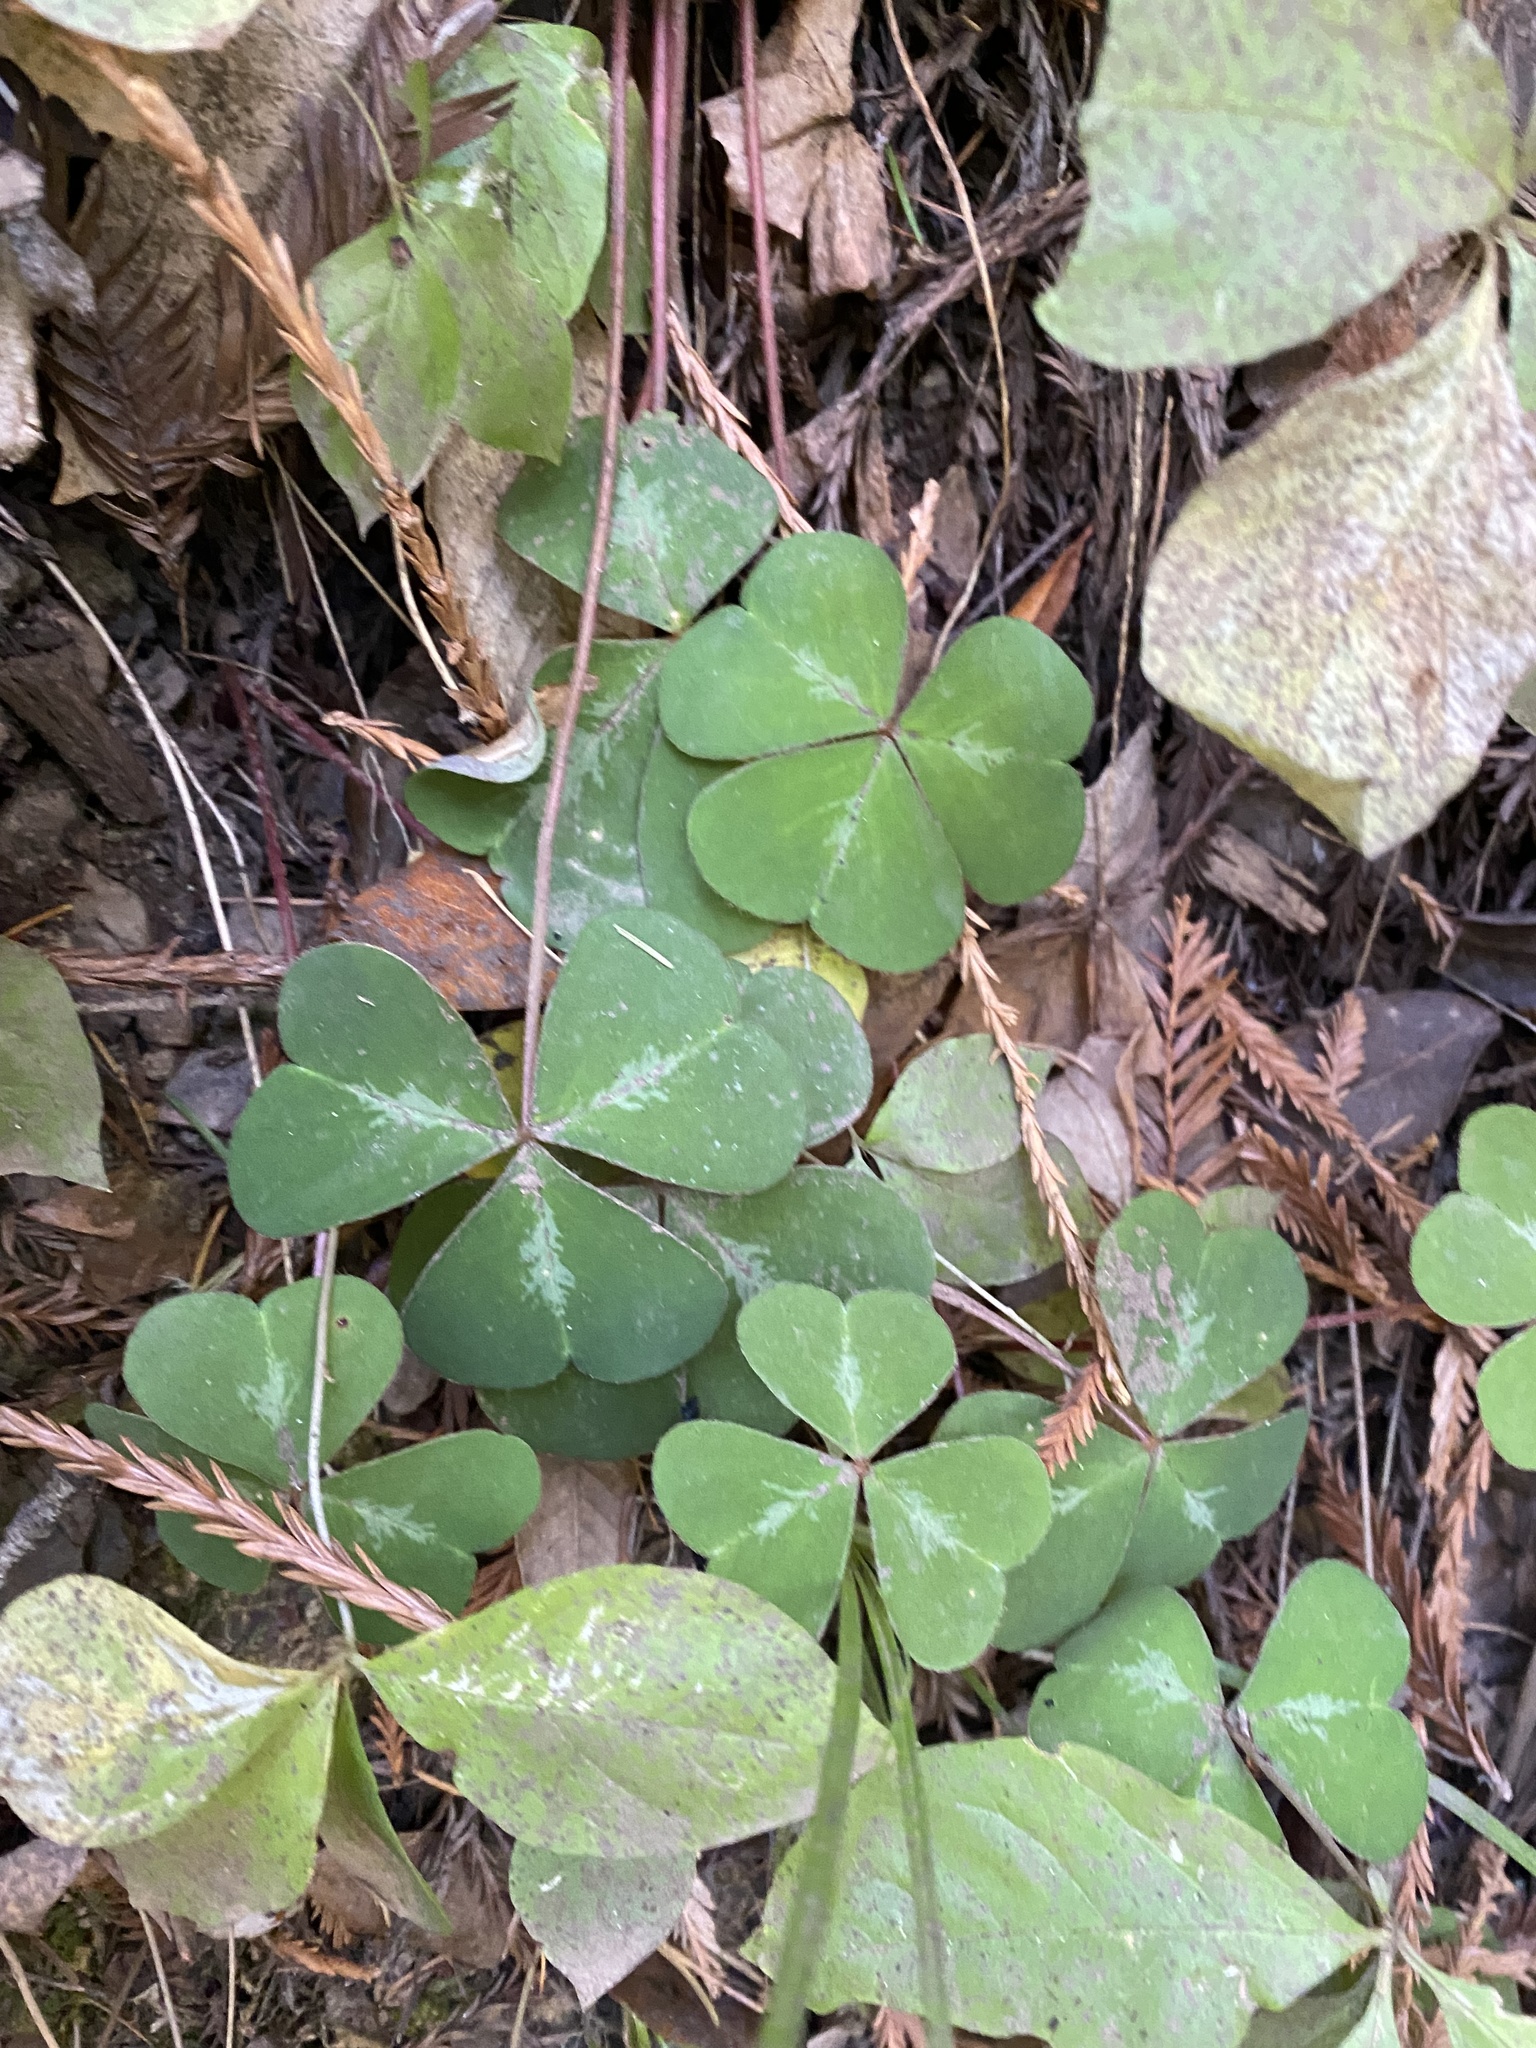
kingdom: Plantae
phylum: Tracheophyta
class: Magnoliopsida
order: Oxalidales
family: Oxalidaceae
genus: Oxalis
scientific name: Oxalis oregana
